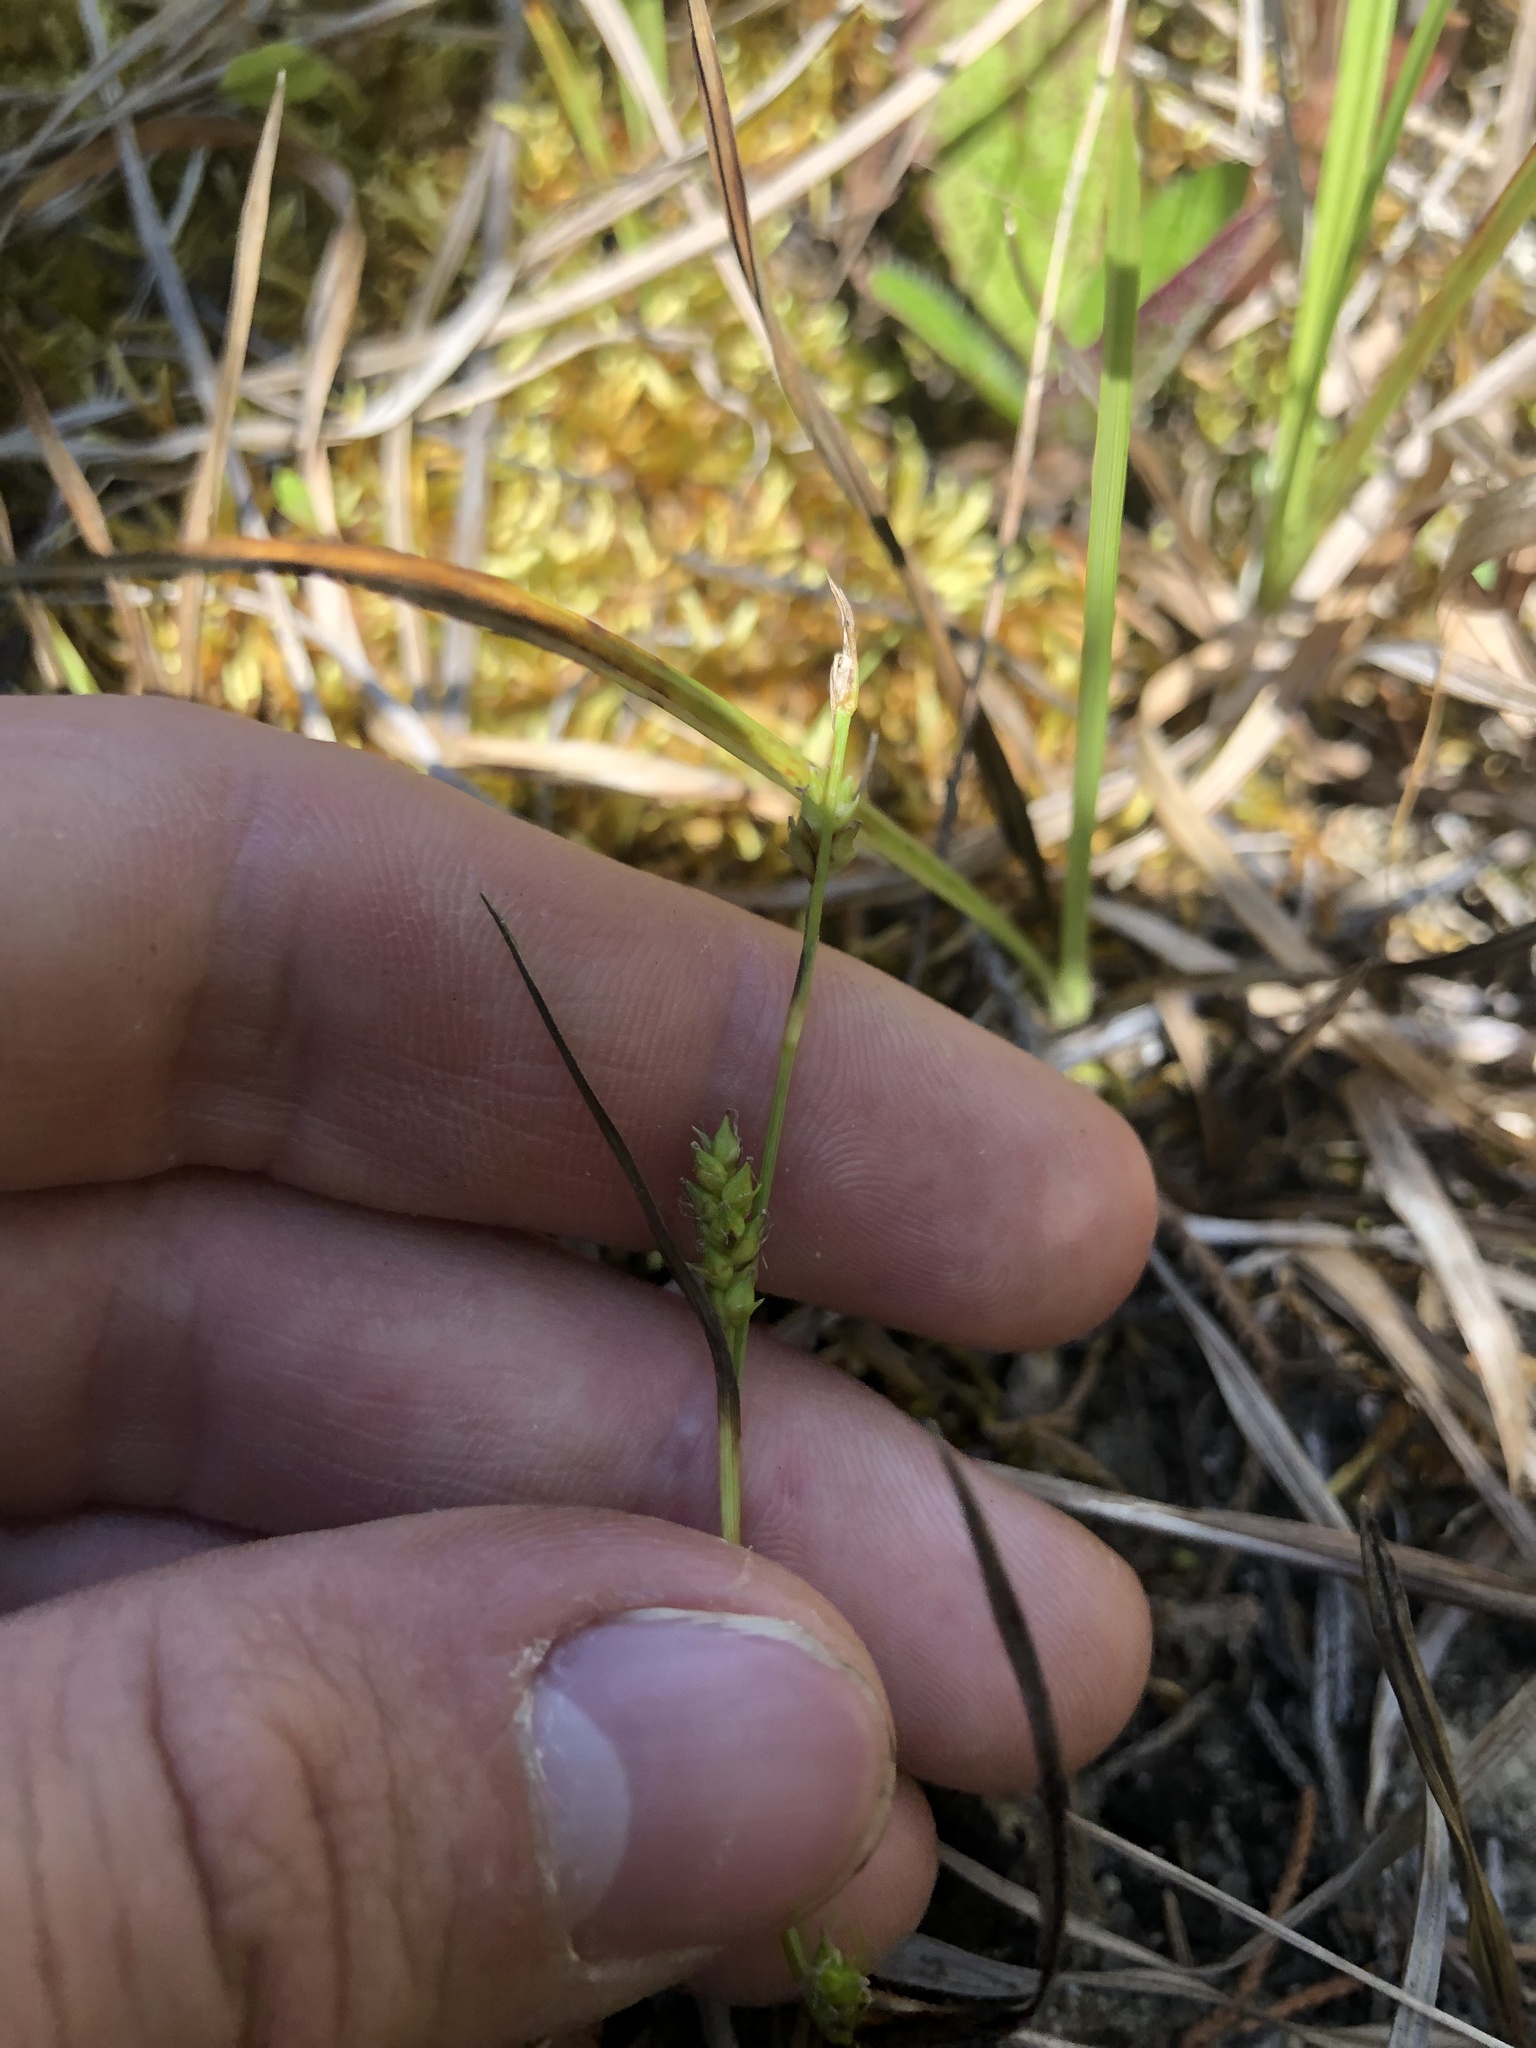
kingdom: Plantae
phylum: Tracheophyta
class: Liliopsida
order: Poales
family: Cyperaceae
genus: Carex
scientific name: Carex microdonta
